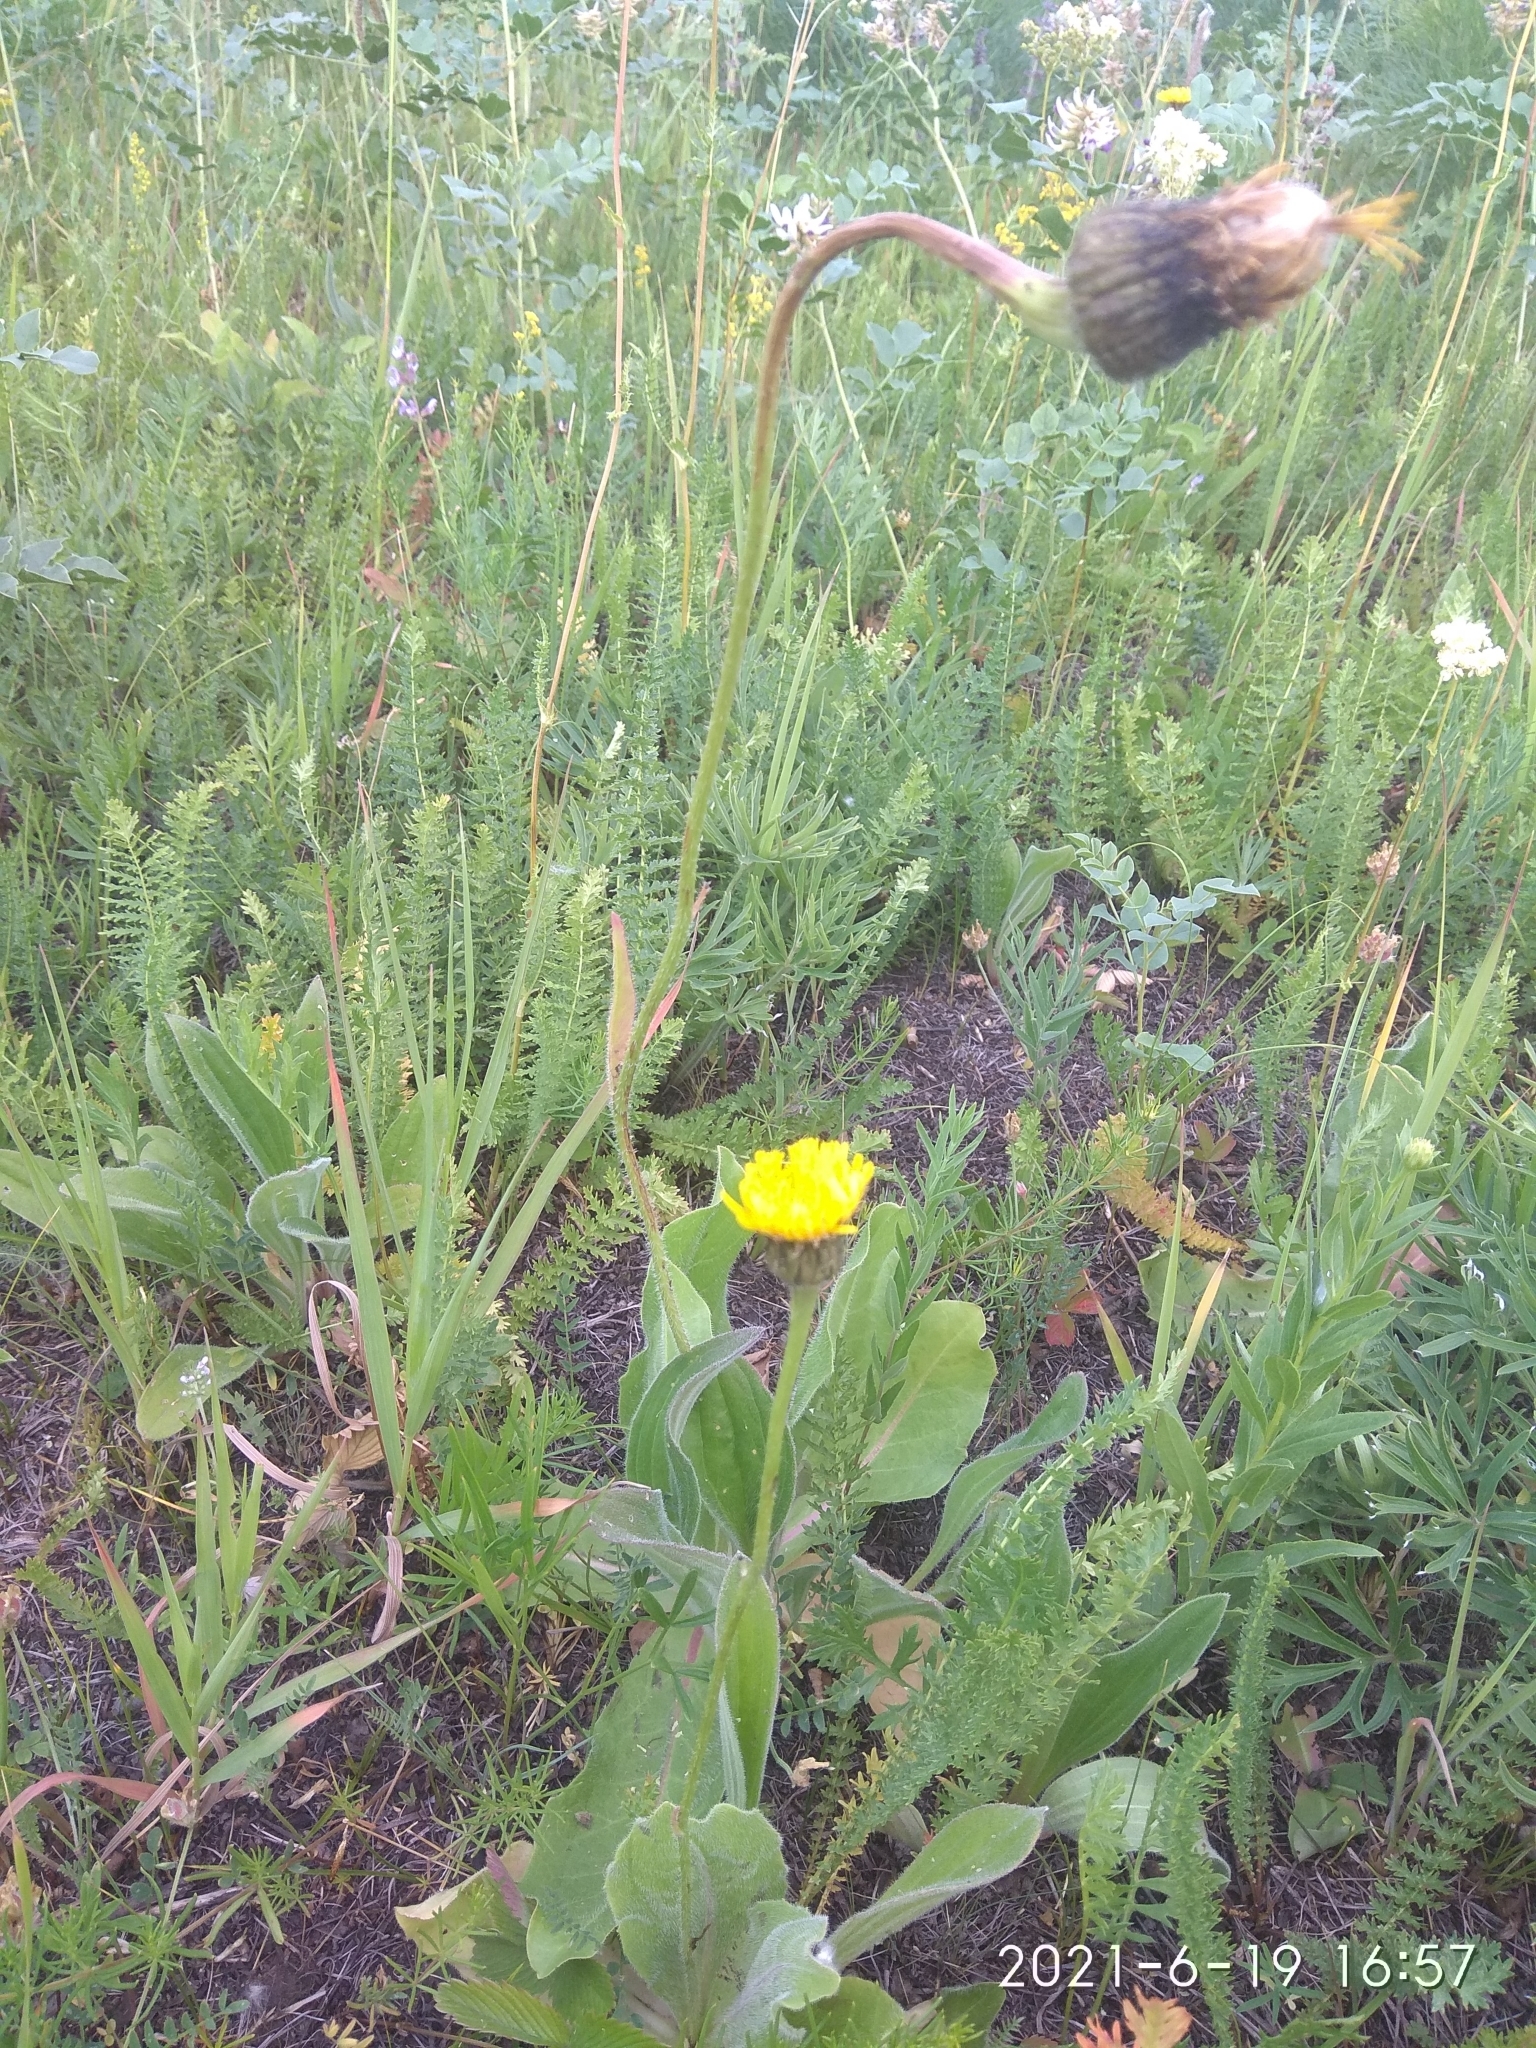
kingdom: Plantae
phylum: Tracheophyta
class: Magnoliopsida
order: Asterales
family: Asteraceae
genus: Trommsdorffia
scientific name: Trommsdorffia maculata
